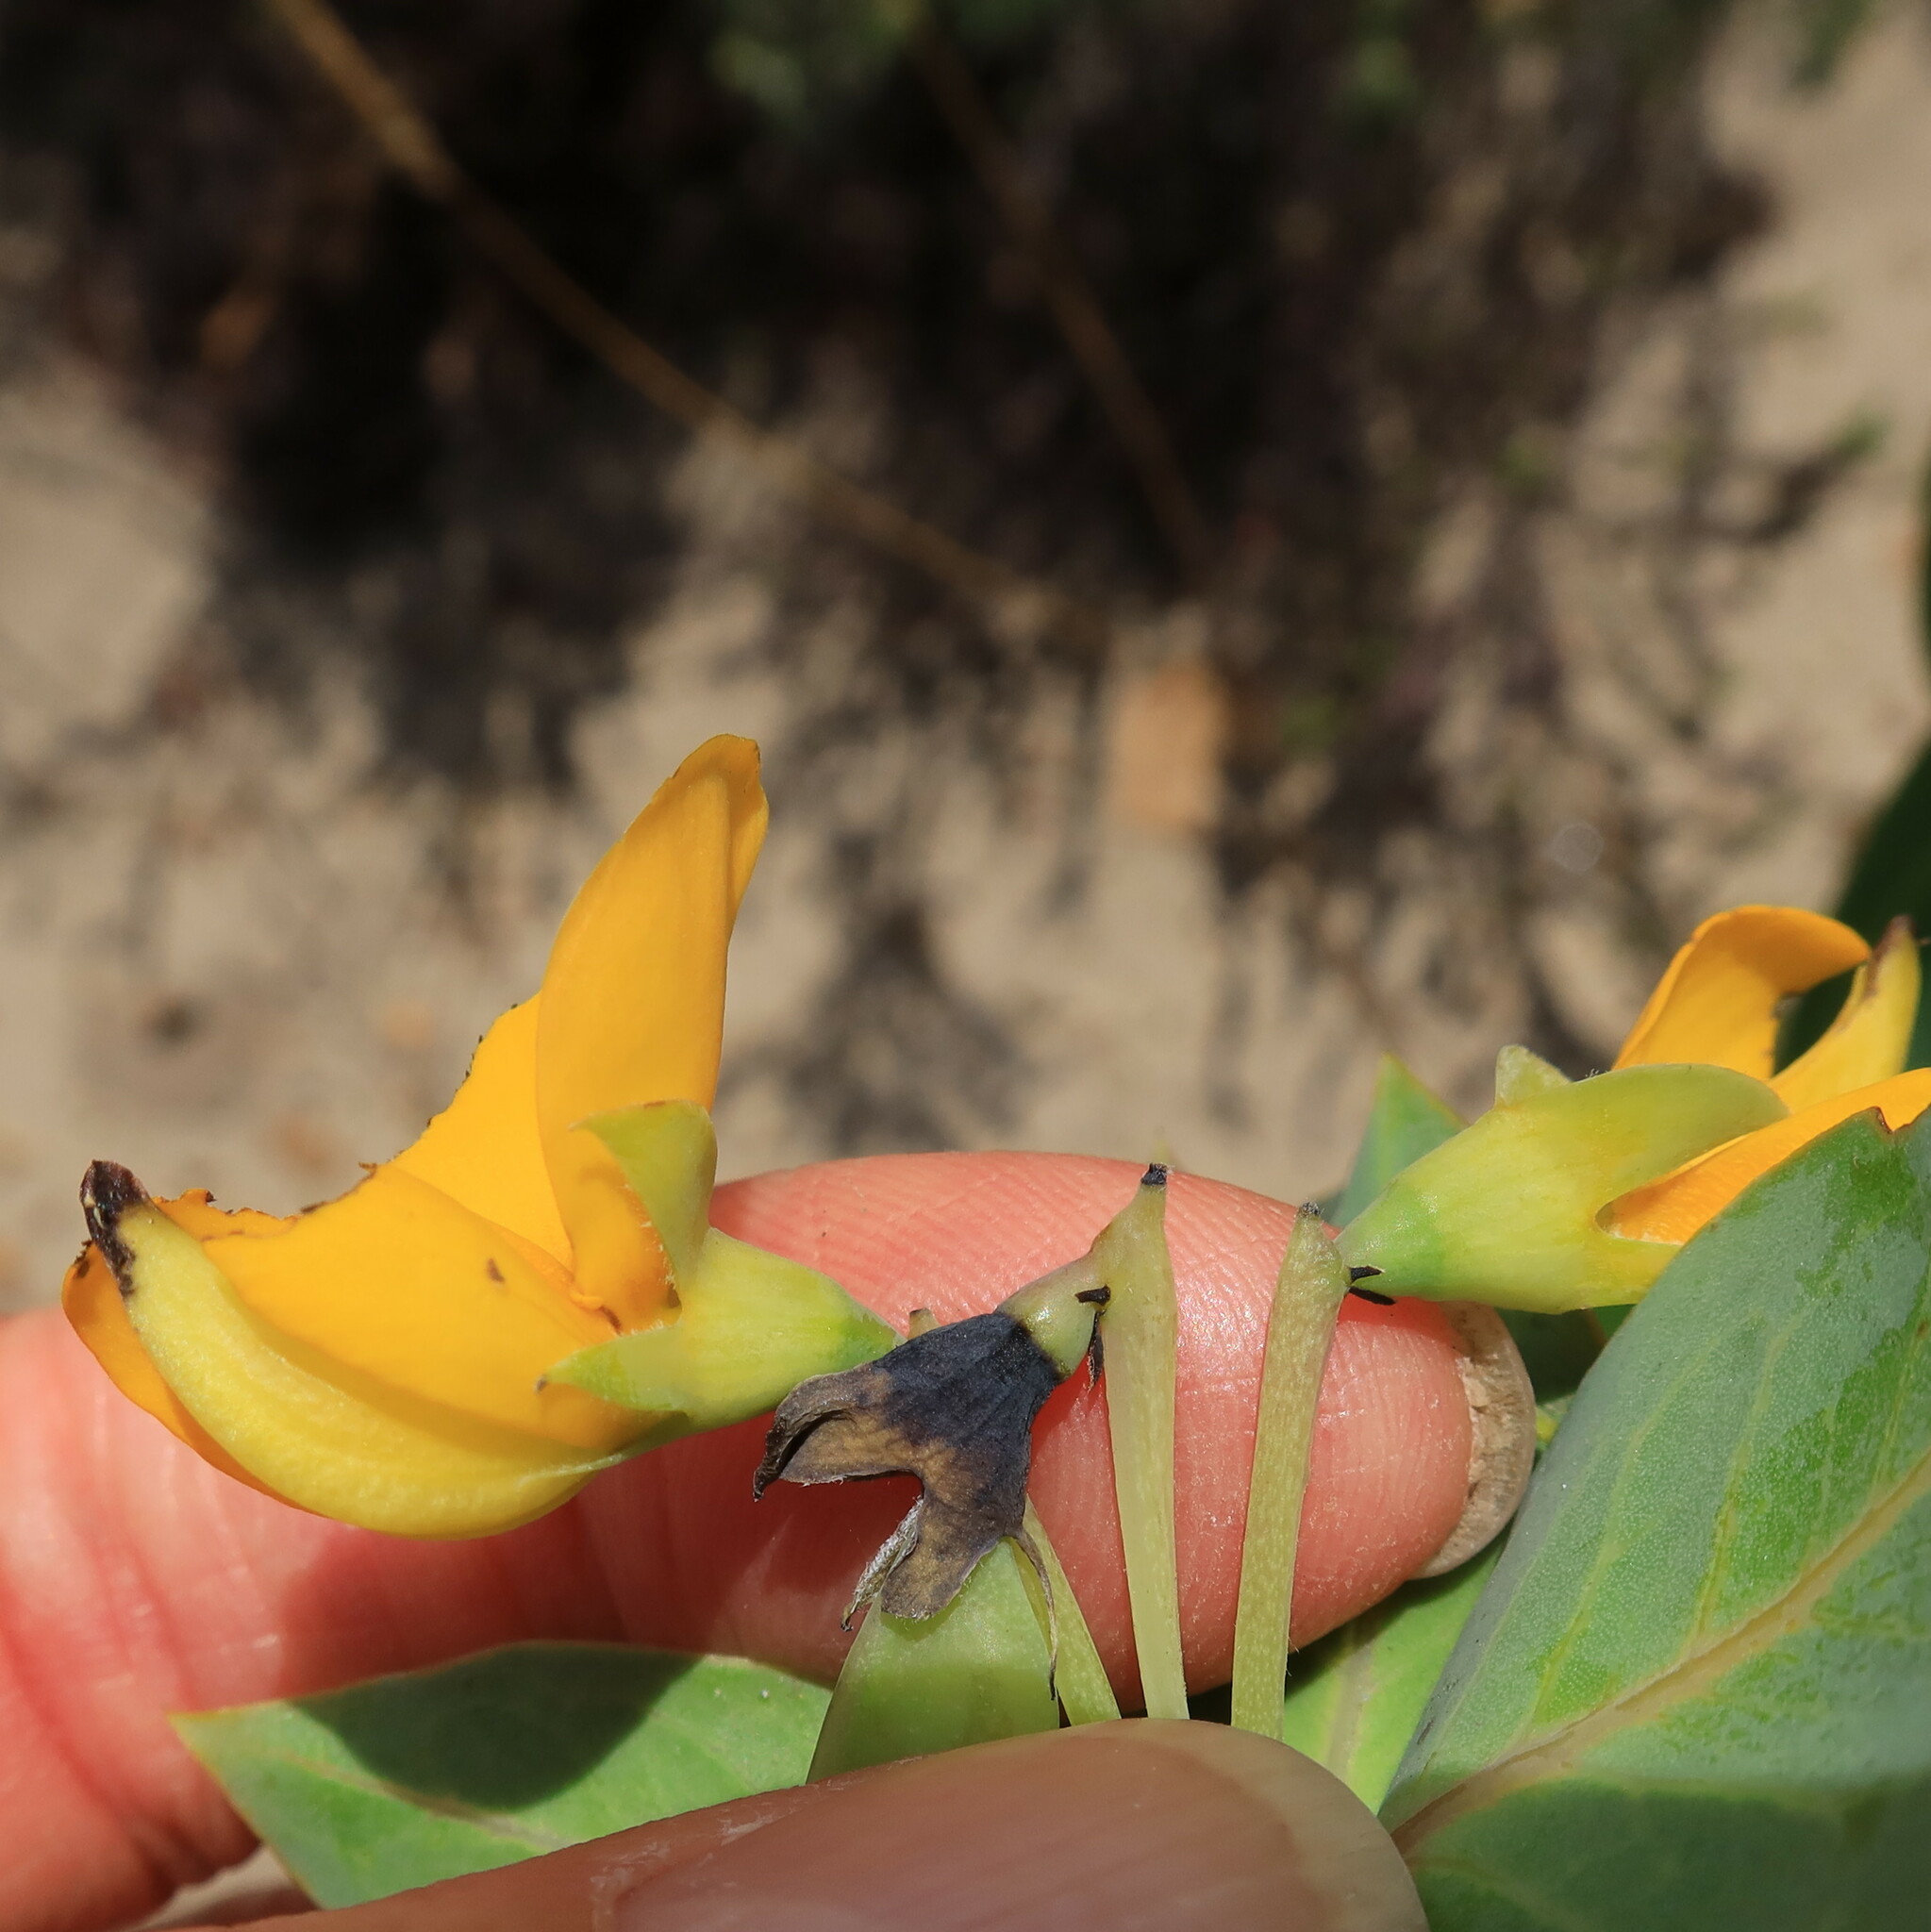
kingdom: Plantae
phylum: Tracheophyta
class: Magnoliopsida
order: Fabales
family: Fabaceae
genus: Rafnia
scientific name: Rafnia triflora
